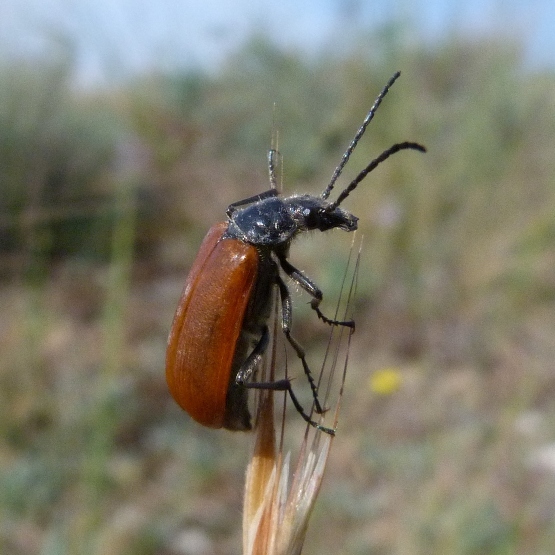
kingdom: Animalia
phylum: Arthropoda
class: Insecta
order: Coleoptera
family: Tenebrionidae
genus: Omophlus
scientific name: Omophlus lepturoides
